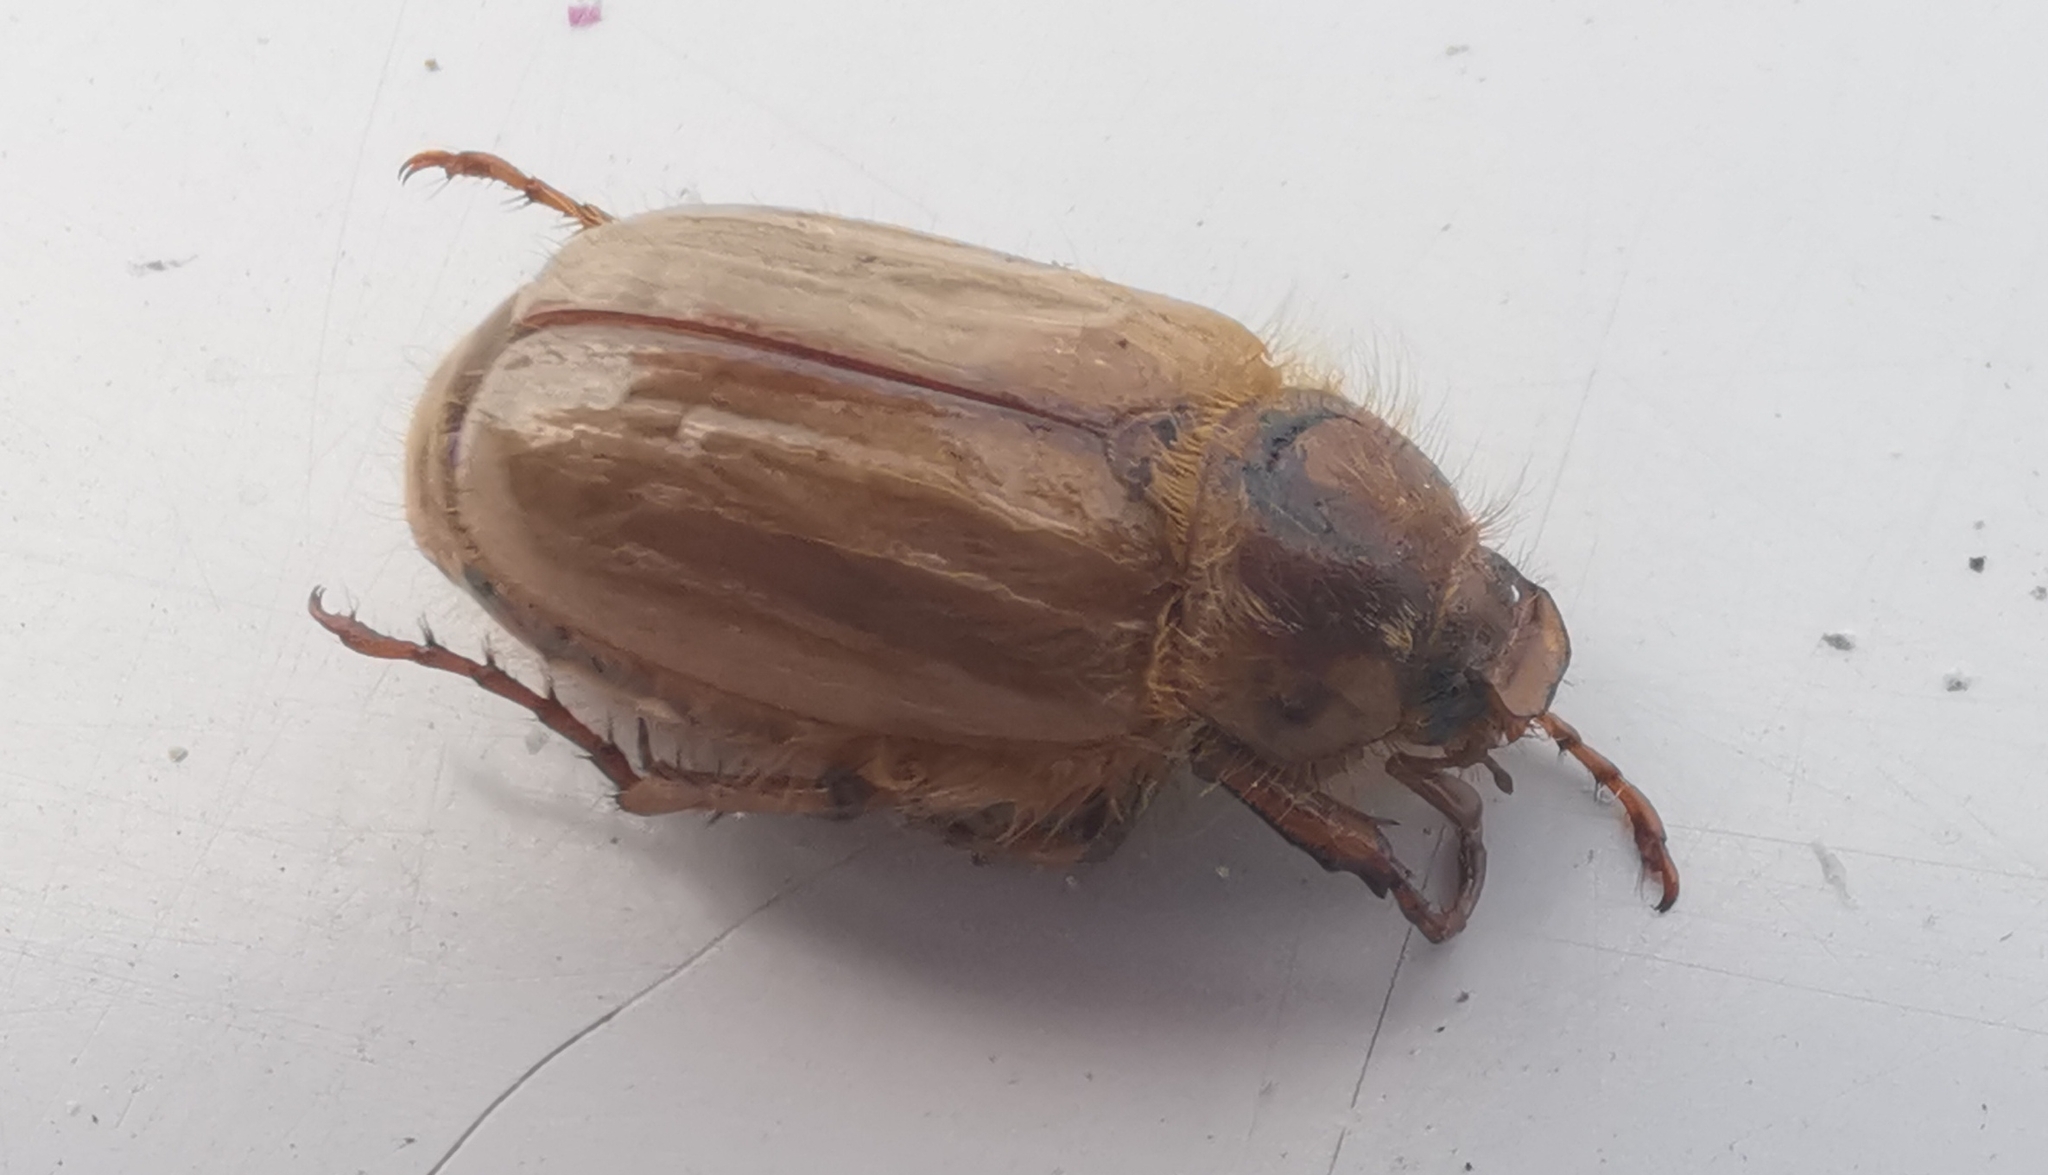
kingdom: Animalia
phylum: Arthropoda
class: Insecta
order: Coleoptera
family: Scarabaeidae
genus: Amphimallon
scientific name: Amphimallon solstitiale
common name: Summer chafer
